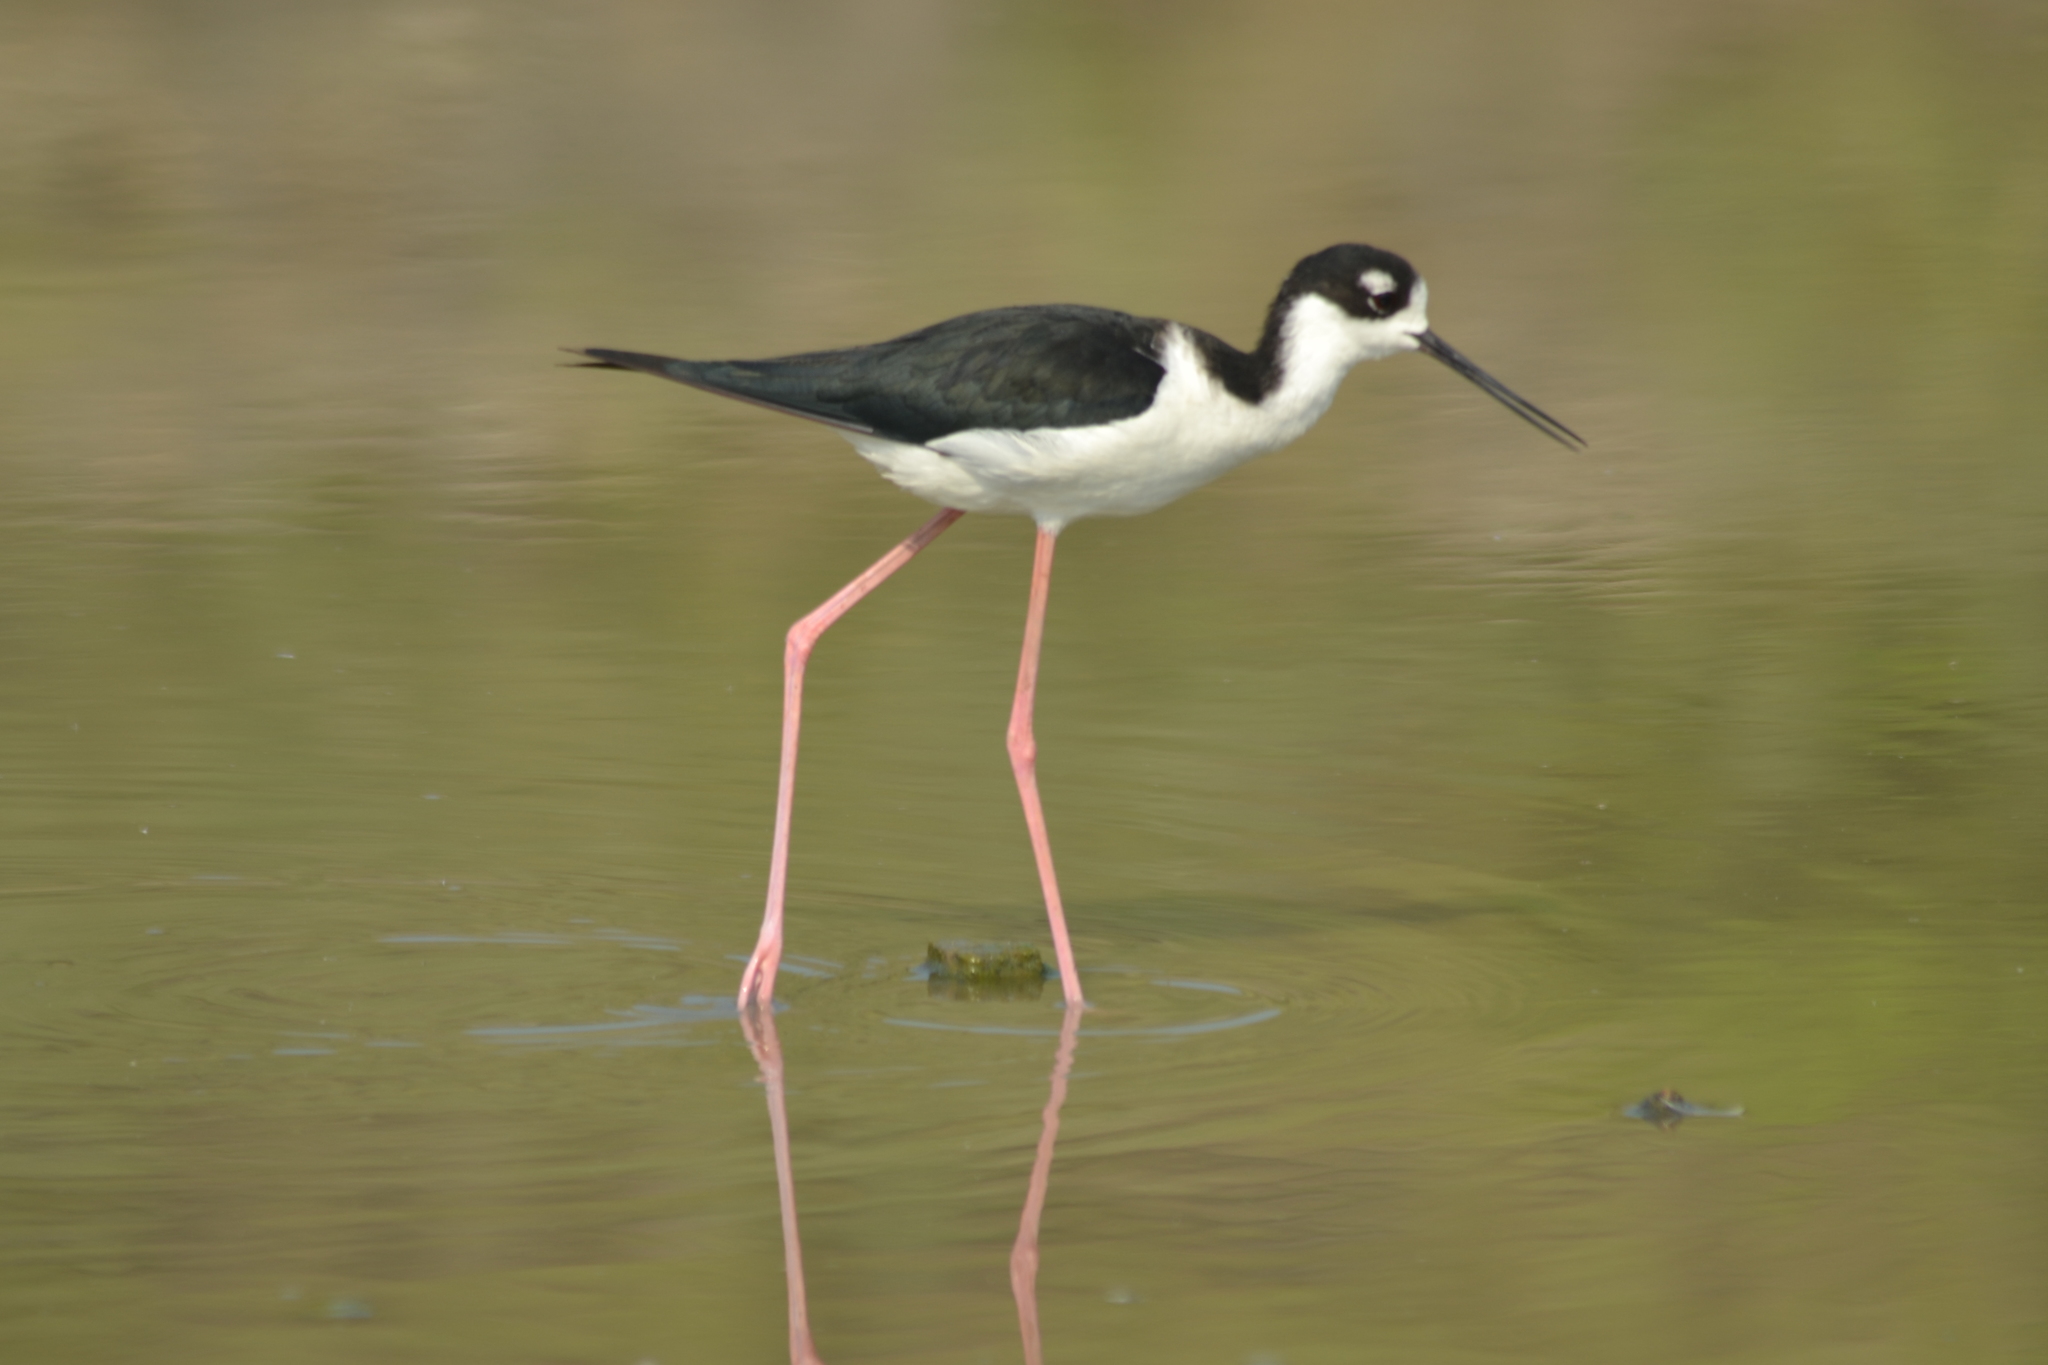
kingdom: Animalia
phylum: Chordata
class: Aves
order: Charadriiformes
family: Recurvirostridae
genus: Himantopus
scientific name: Himantopus mexicanus
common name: Black-necked stilt
